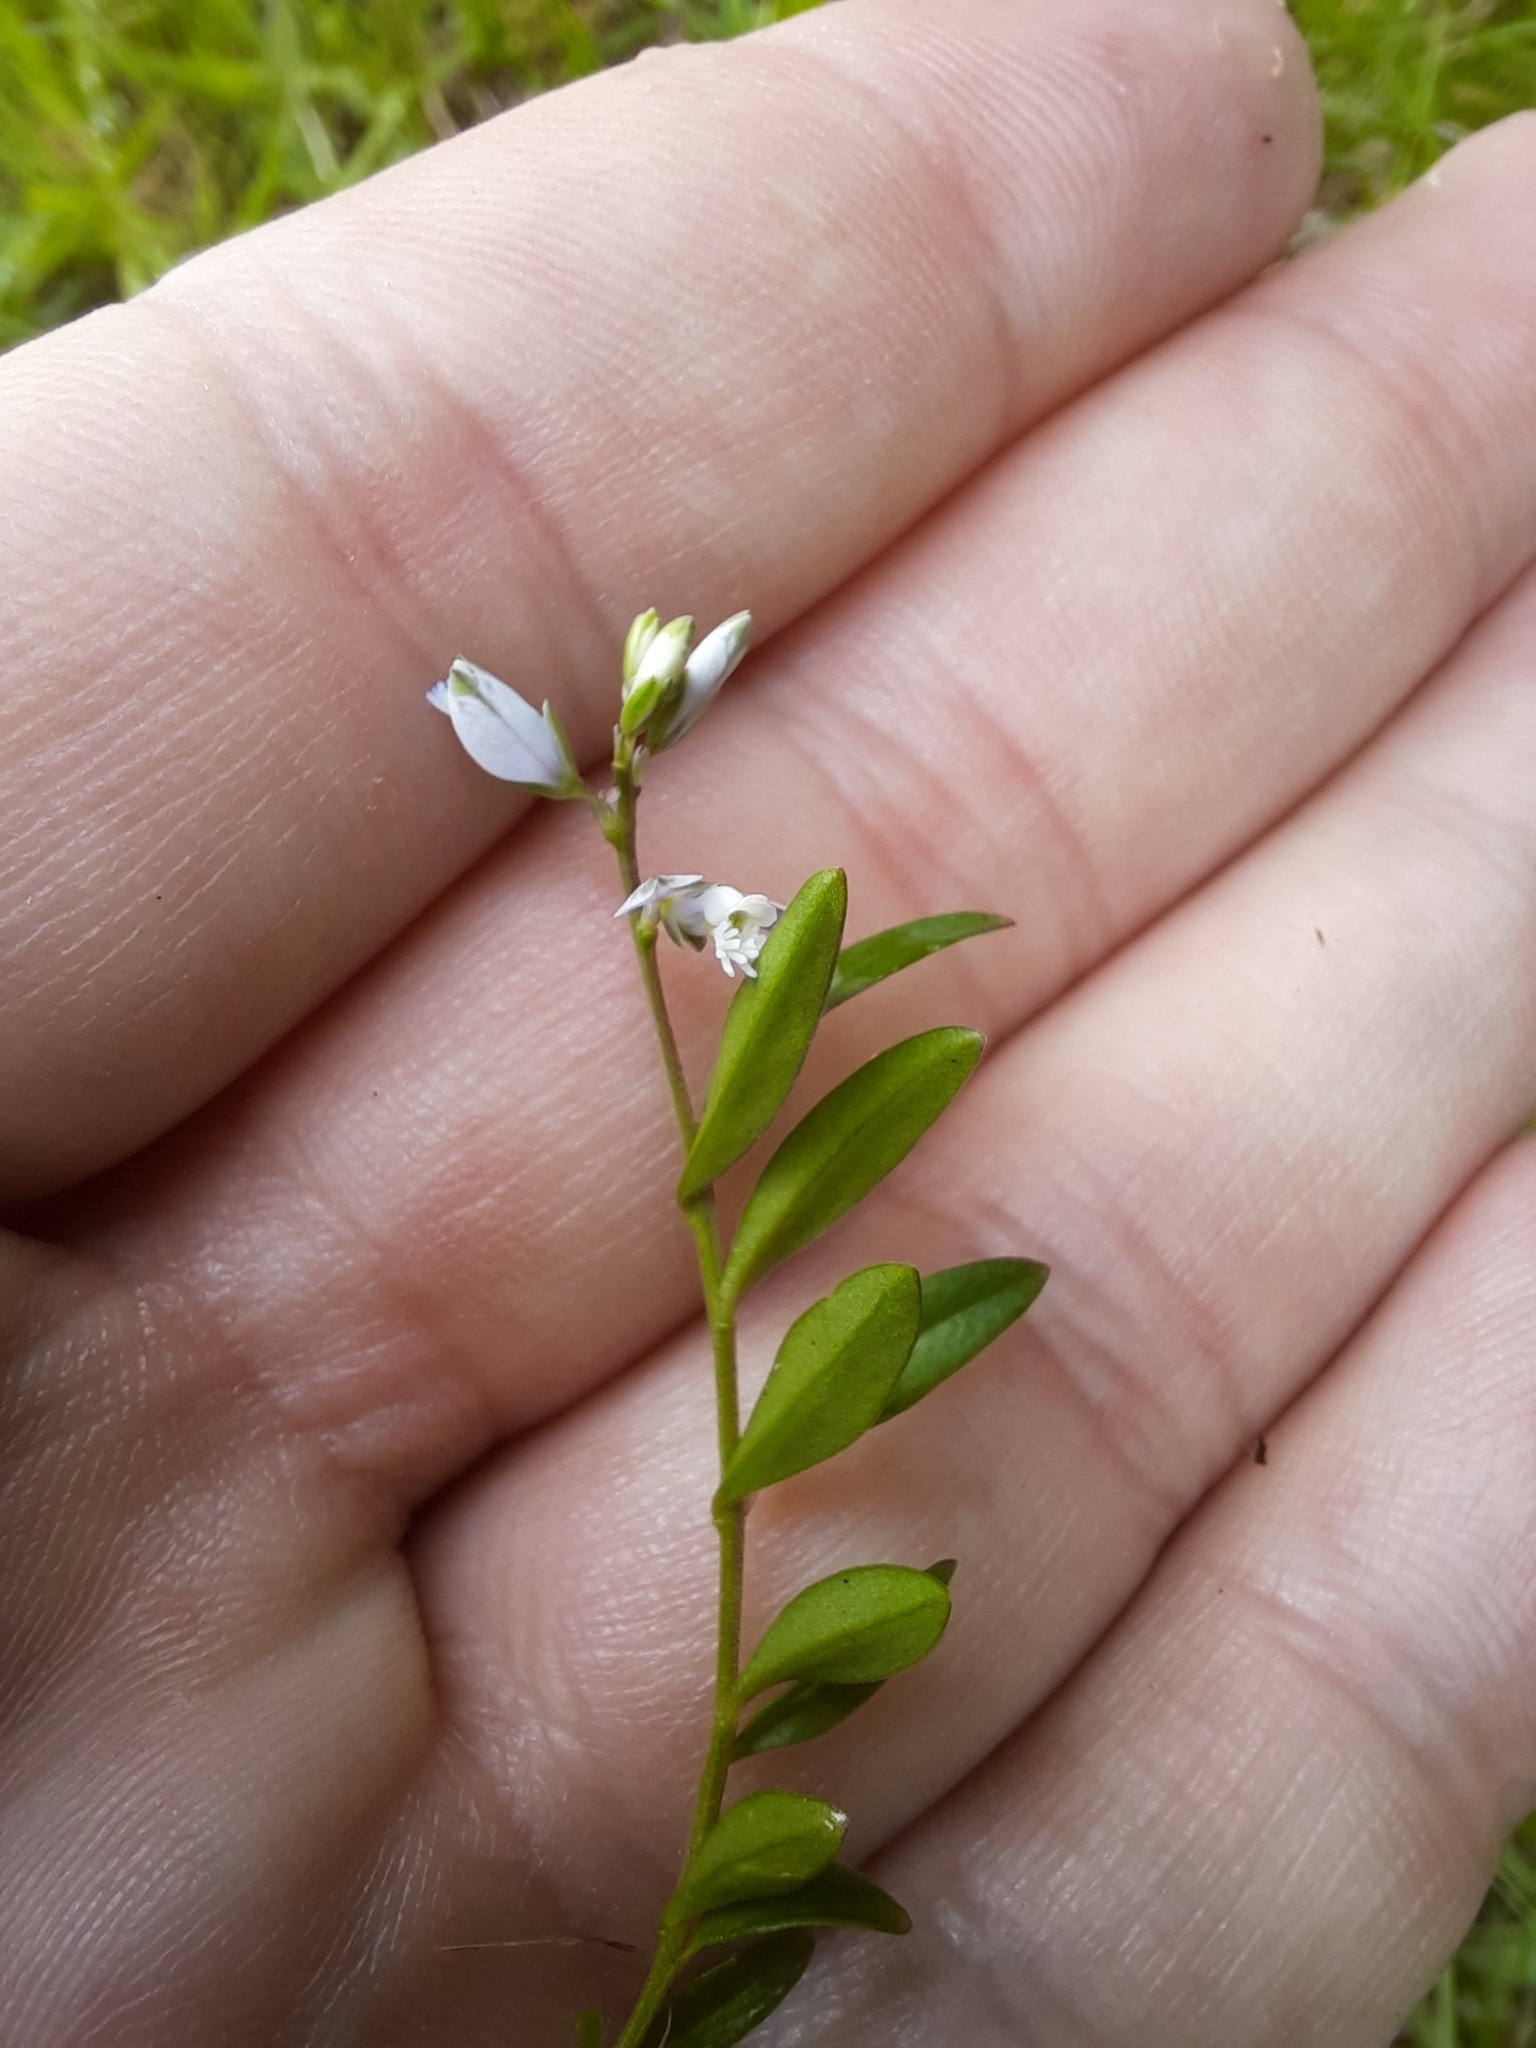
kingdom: Plantae
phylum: Tracheophyta
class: Magnoliopsida
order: Fabales
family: Polygalaceae
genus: Polygala
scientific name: Polygala serpyllifolia
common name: Heath milkwort
